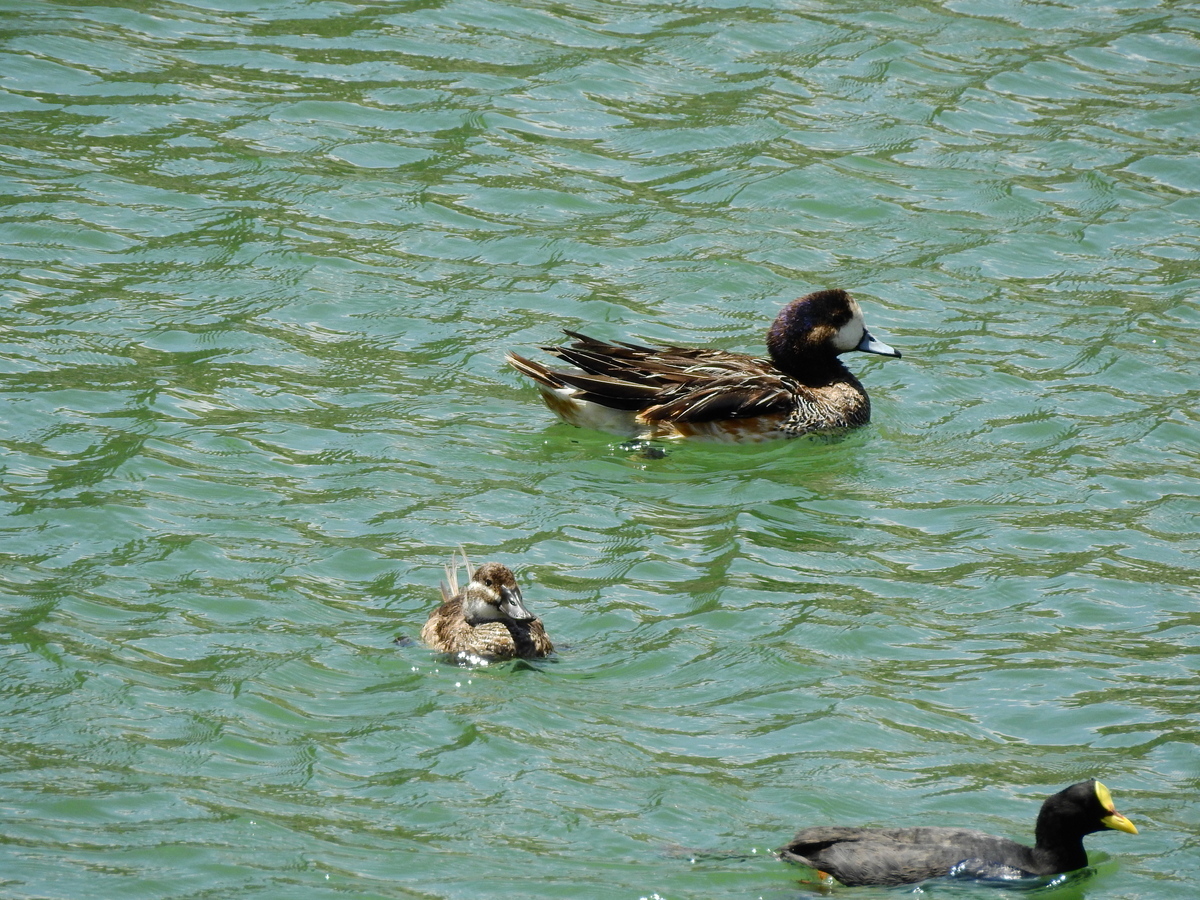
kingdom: Animalia
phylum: Chordata
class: Aves
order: Anseriformes
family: Anatidae
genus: Mareca
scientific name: Mareca sibilatrix
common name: Chiloe wigeon
